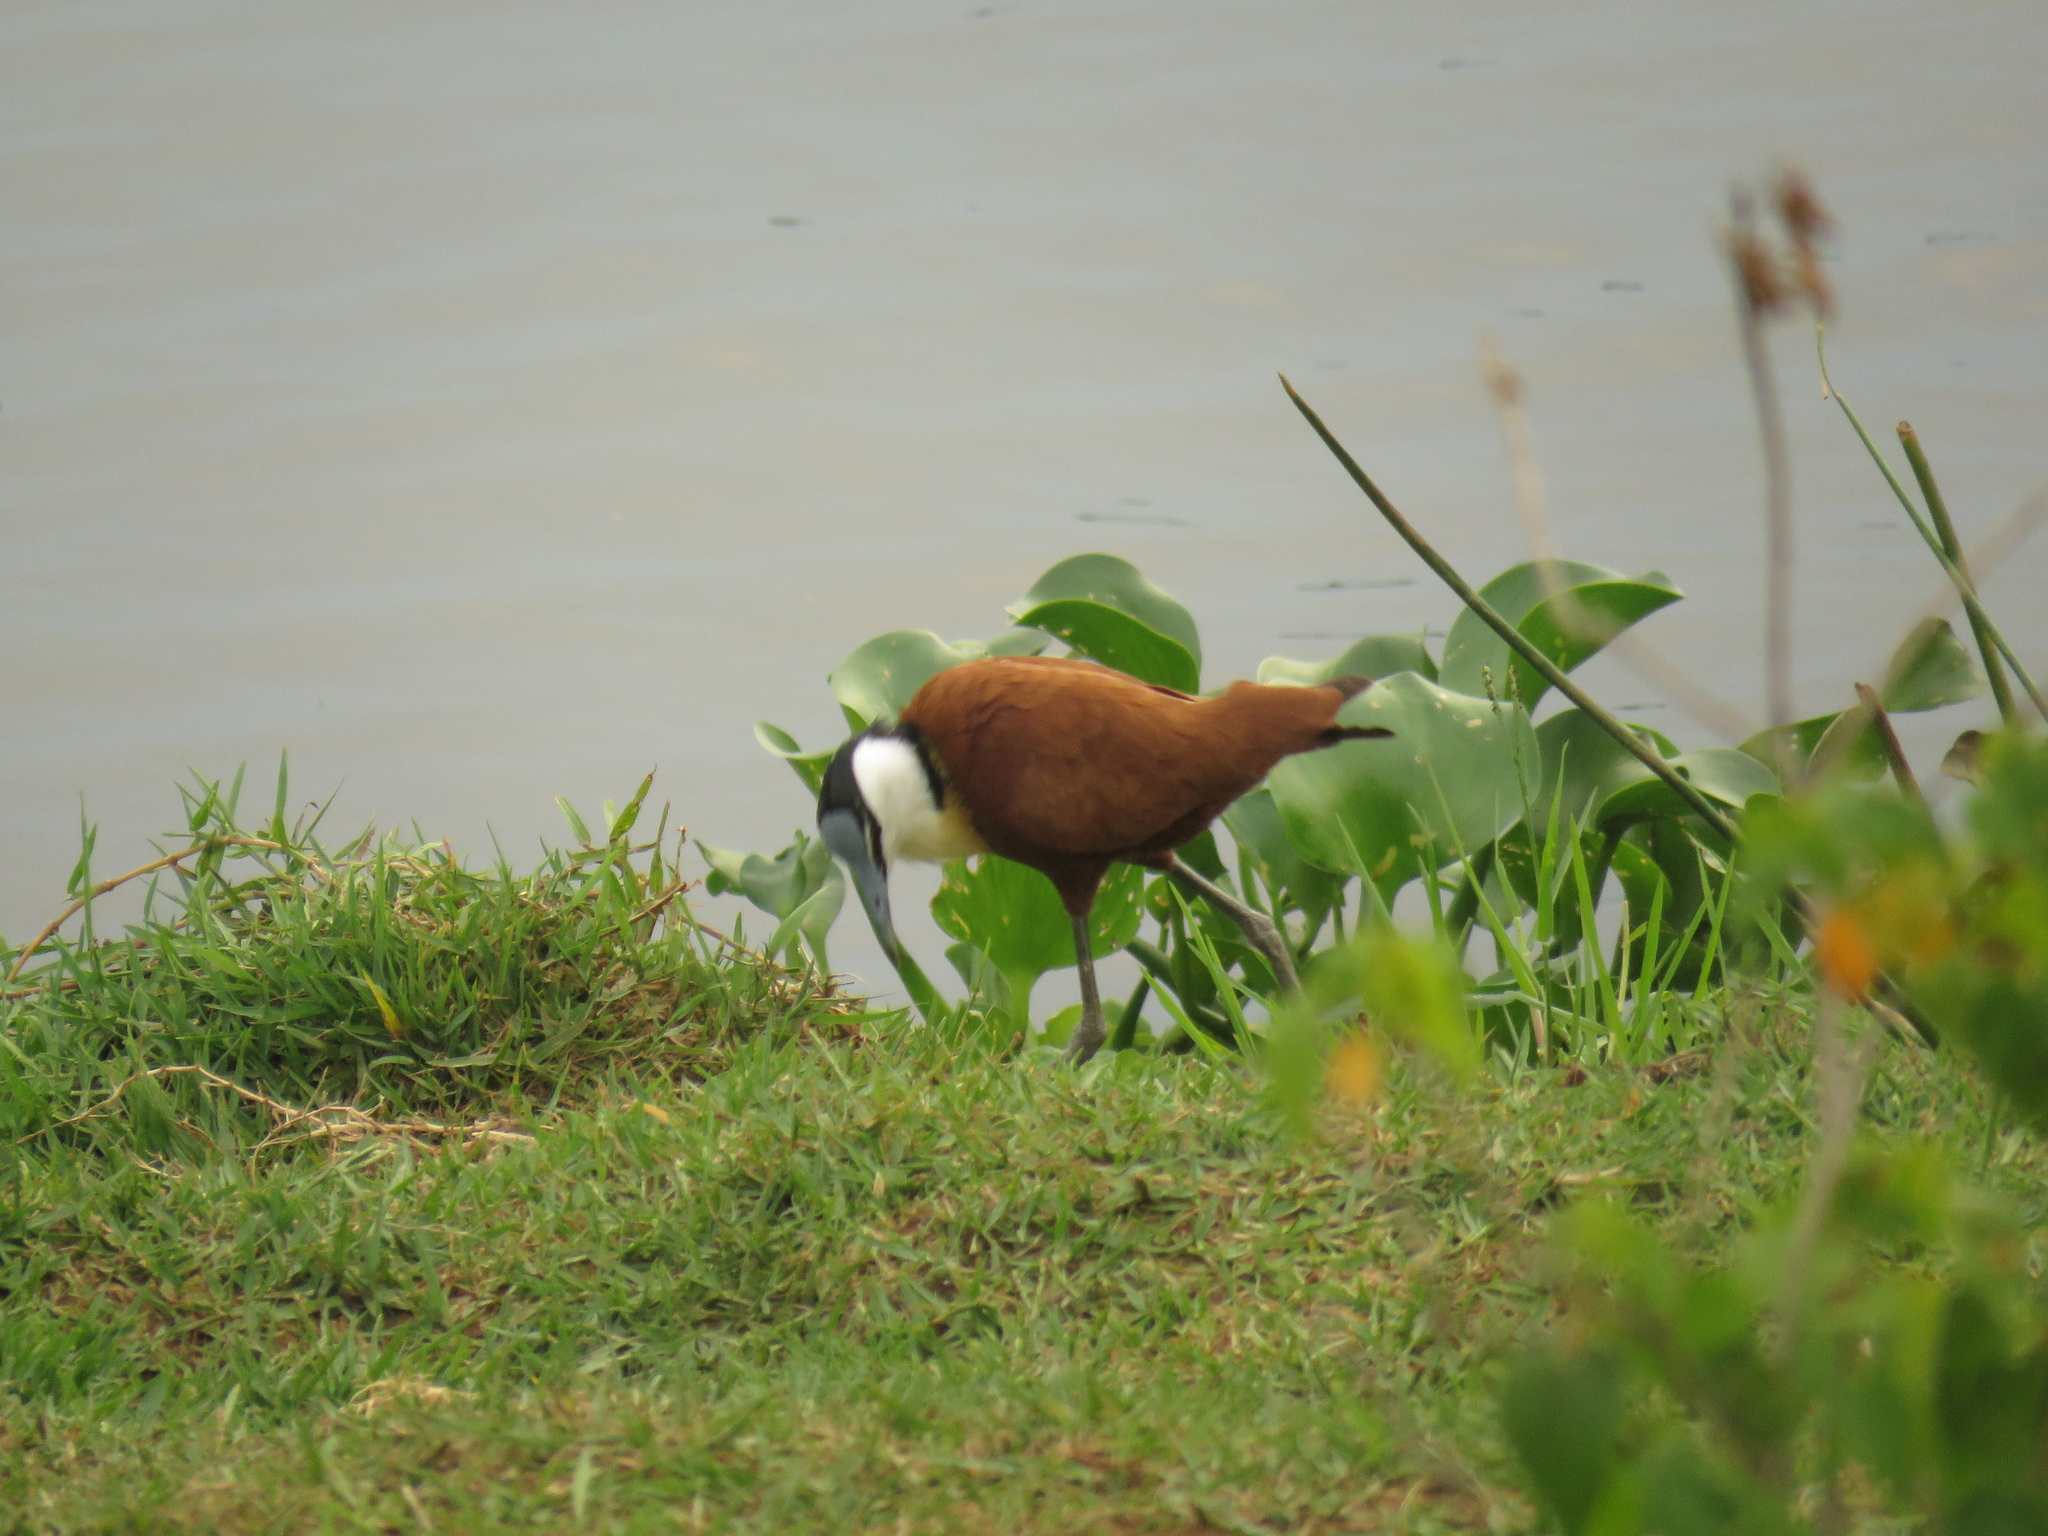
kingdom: Animalia
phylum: Chordata
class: Aves
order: Charadriiformes
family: Jacanidae
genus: Actophilornis
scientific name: Actophilornis africanus
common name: African jacana
